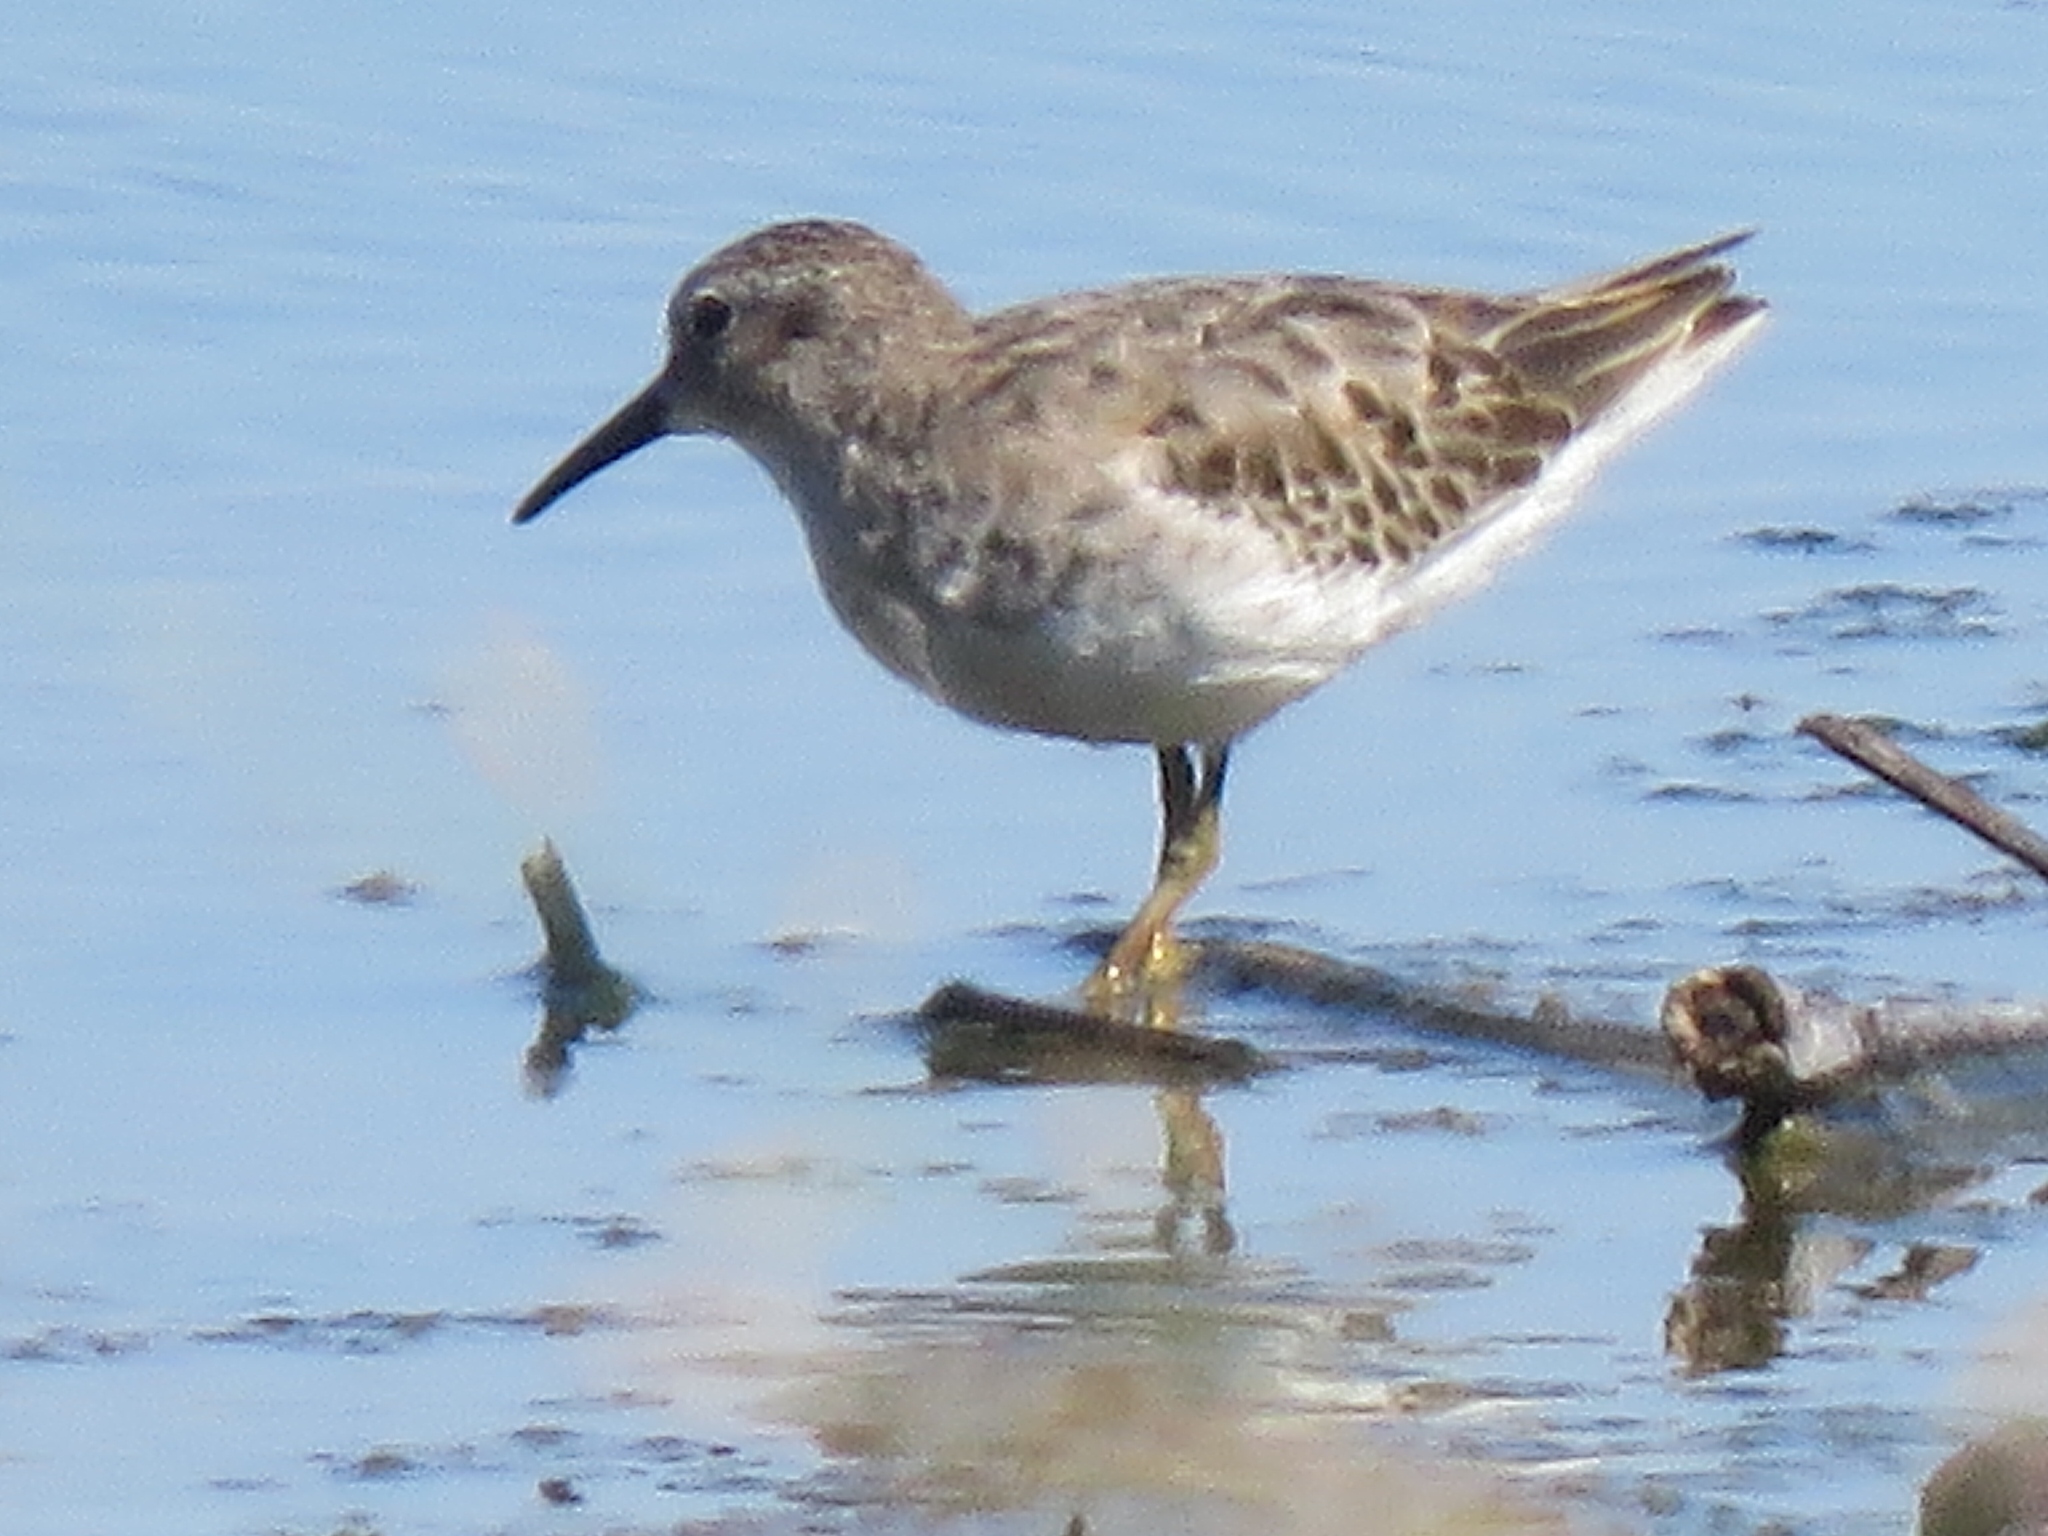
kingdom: Animalia
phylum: Chordata
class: Aves
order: Charadriiformes
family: Scolopacidae
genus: Calidris
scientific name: Calidris minutilla
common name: Least sandpiper
